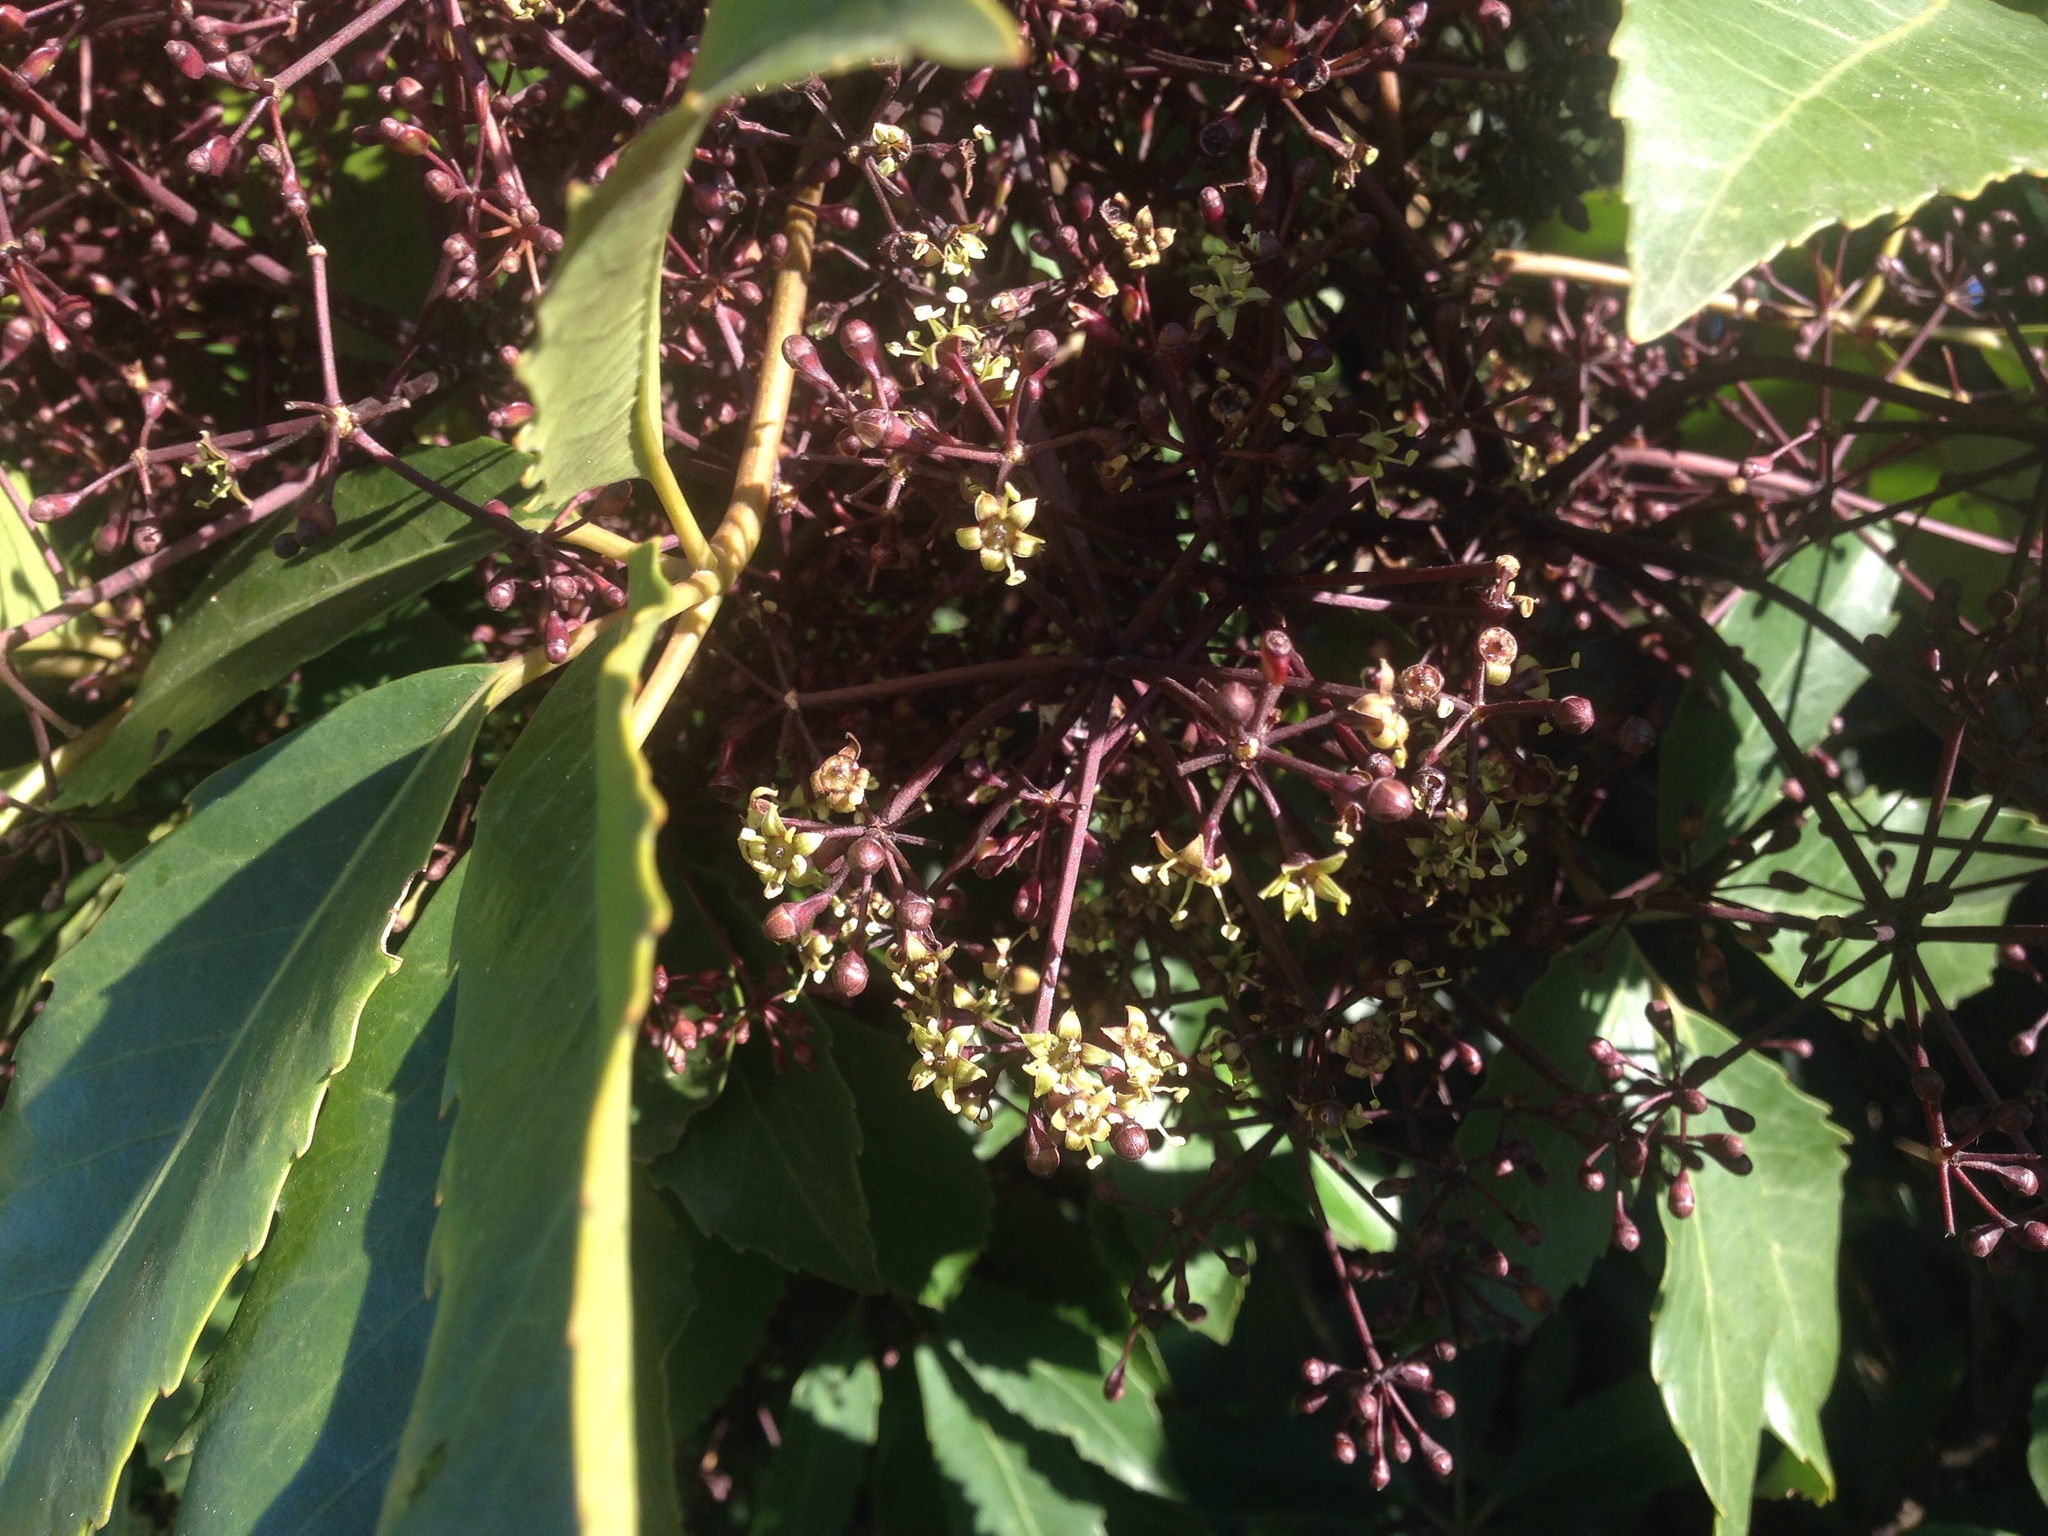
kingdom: Plantae
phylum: Tracheophyta
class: Magnoliopsida
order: Apiales
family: Araliaceae
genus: Neopanax
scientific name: Neopanax arboreus
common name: Five-fingers
